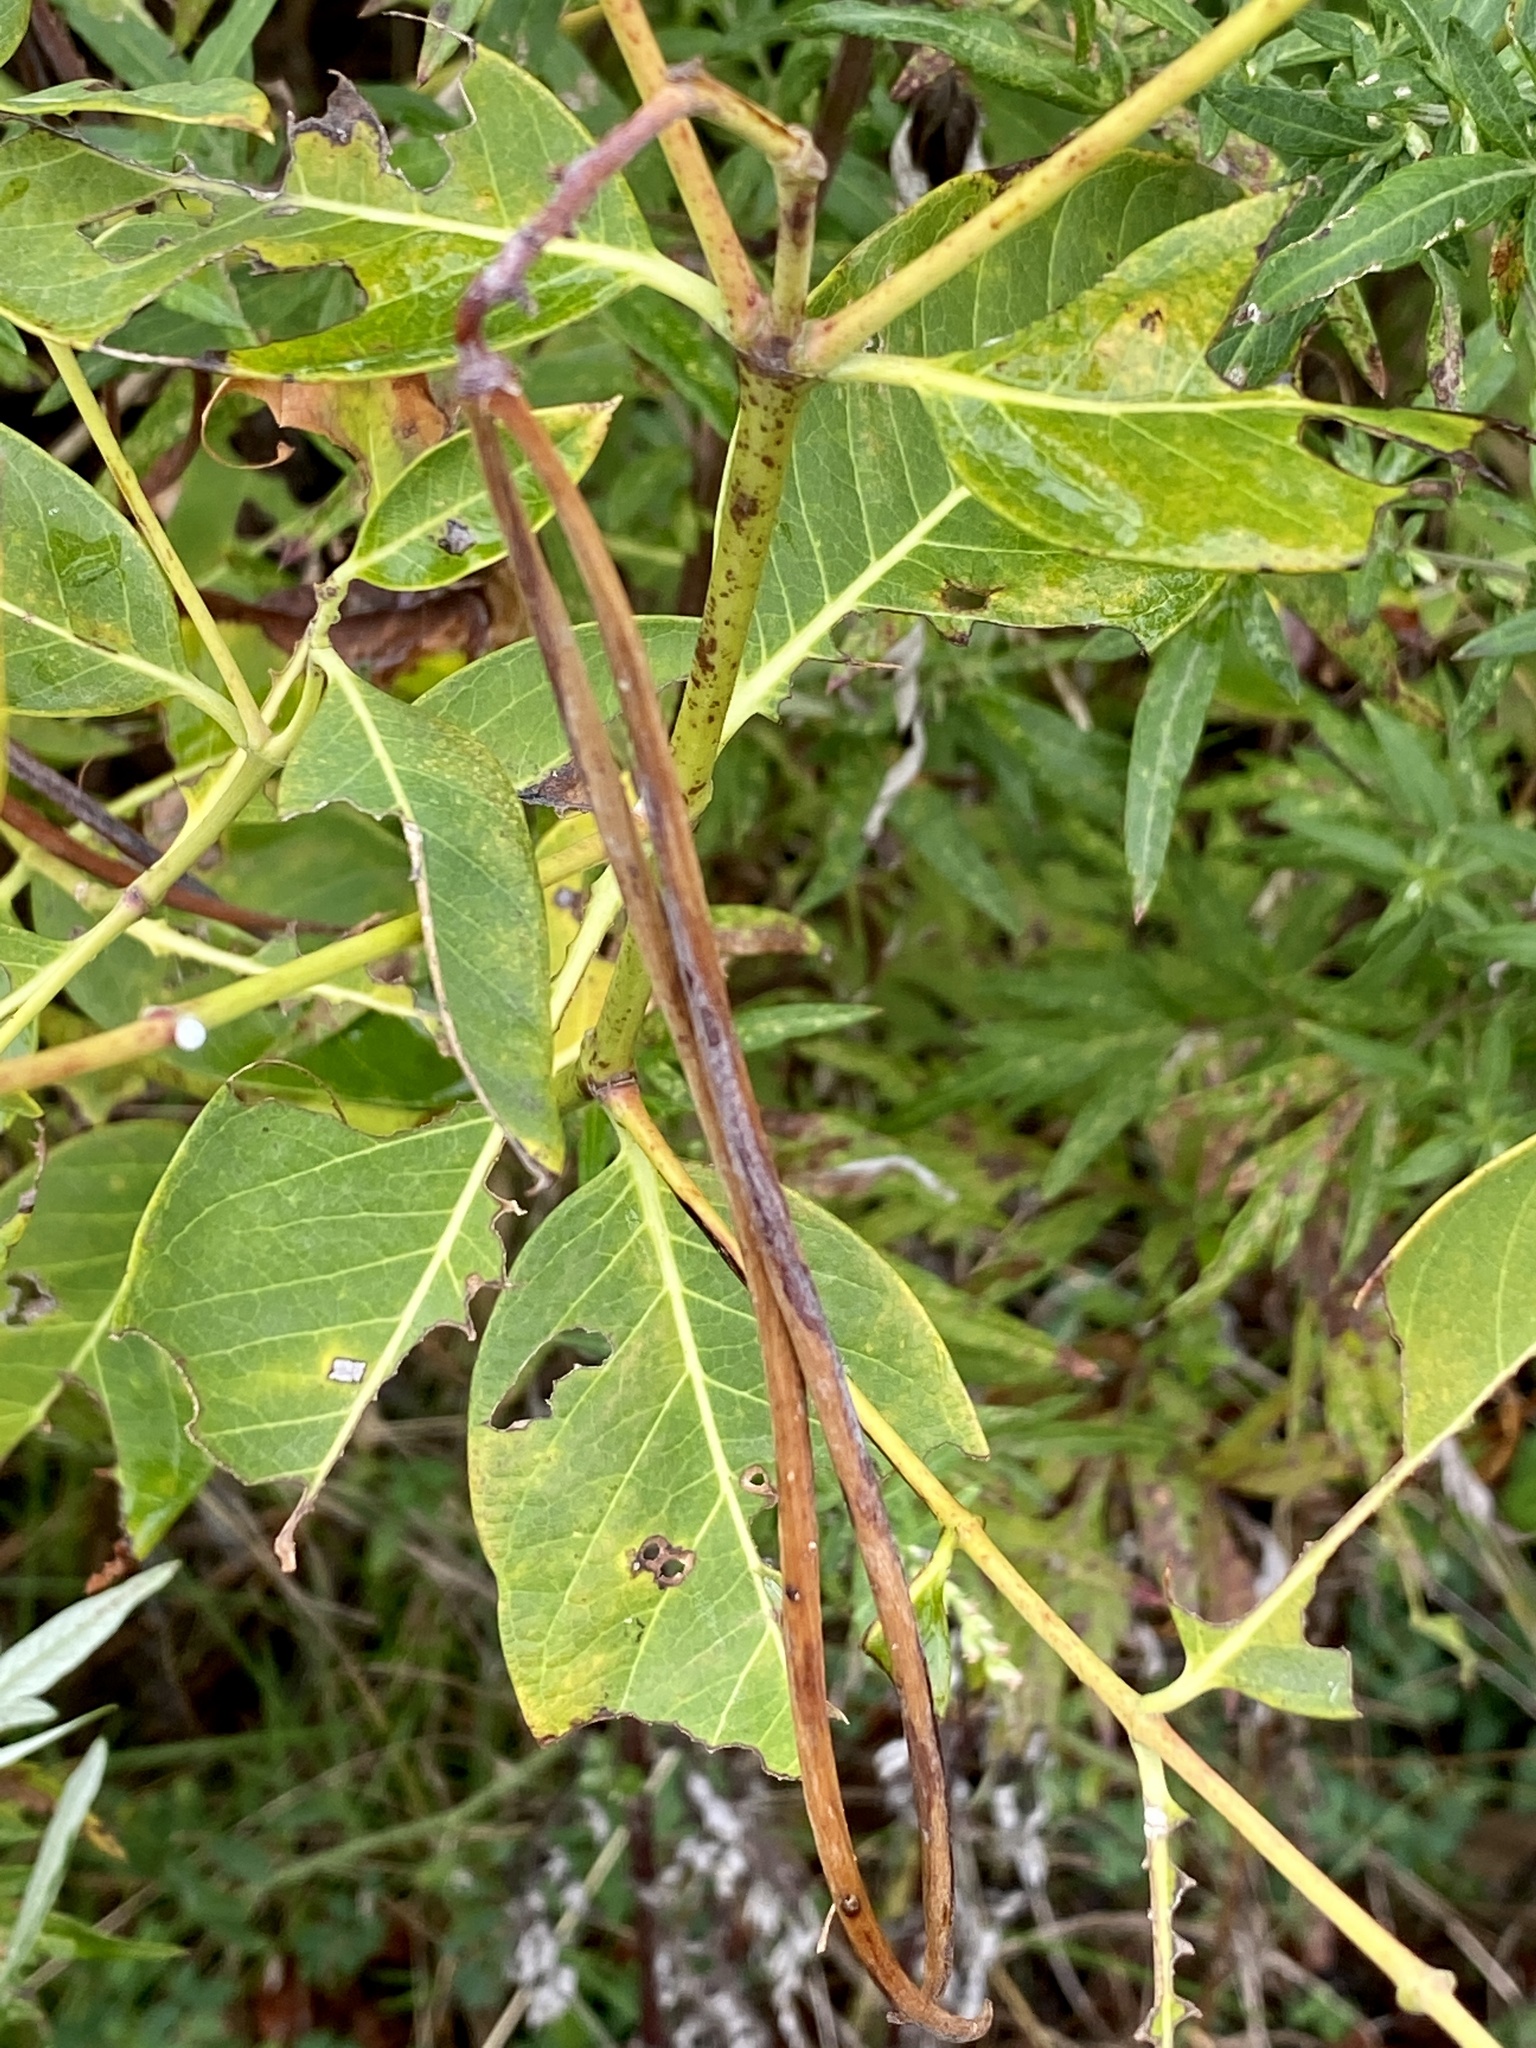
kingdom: Plantae
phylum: Tracheophyta
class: Magnoliopsida
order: Gentianales
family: Apocynaceae
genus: Apocynum
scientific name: Apocynum cannabinum
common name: Hemp dogbane
